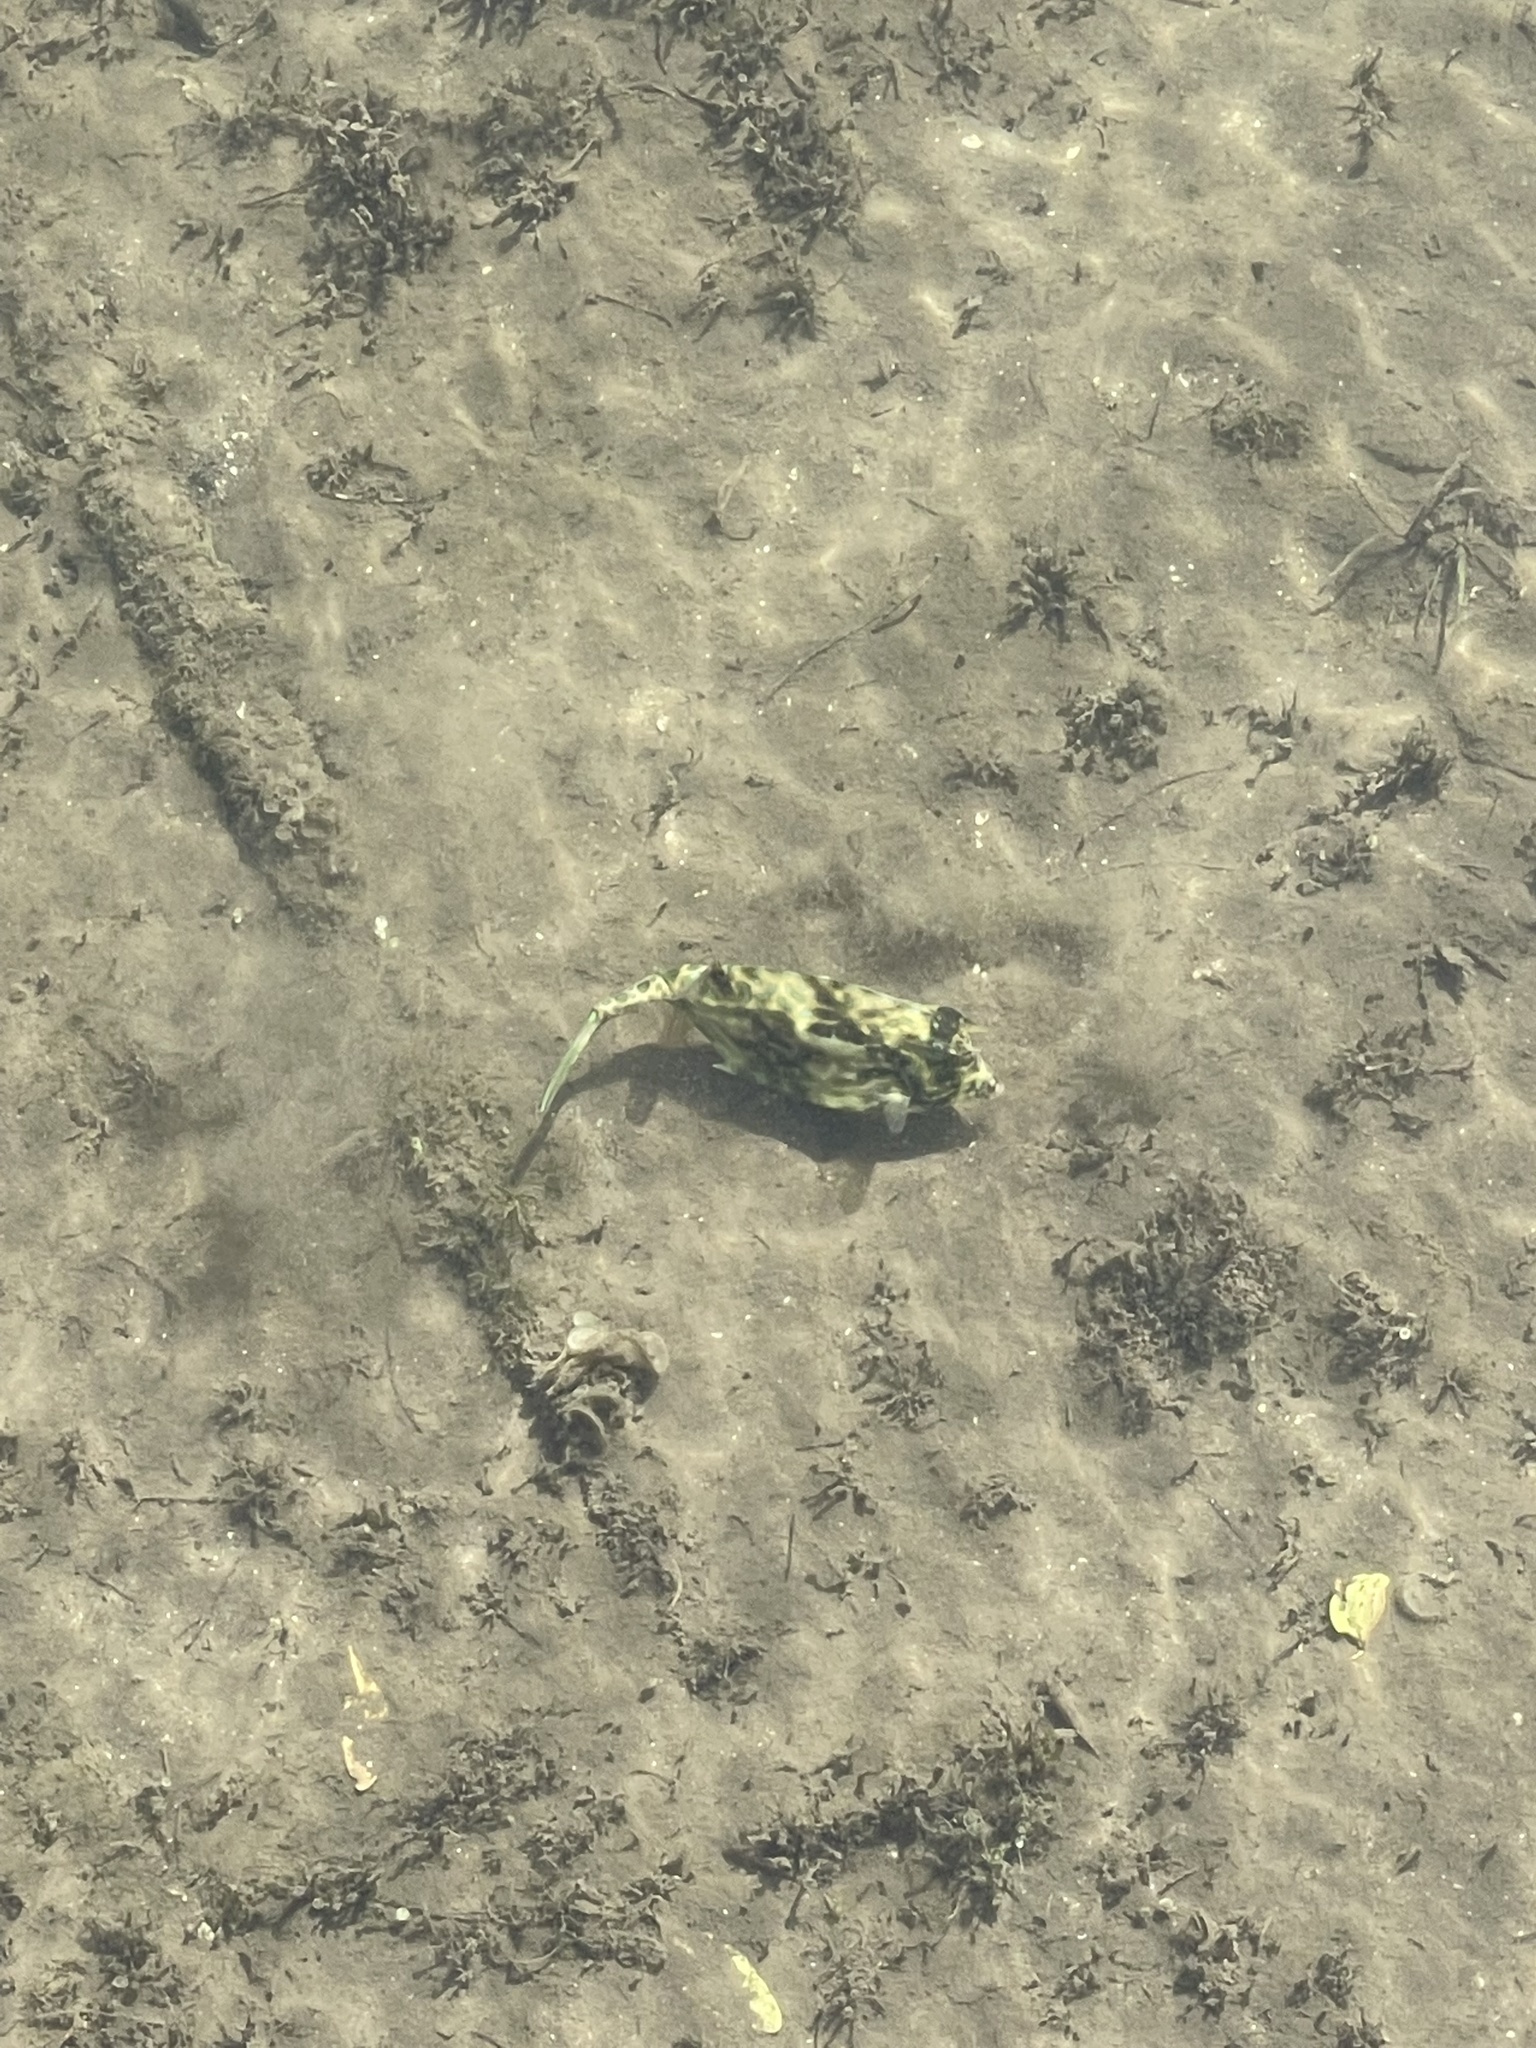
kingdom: Animalia
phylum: Chordata
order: Tetraodontiformes
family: Ostraciidae
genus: Acanthostracion
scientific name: Acanthostracion quadricornis
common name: Scrawled cowfish
